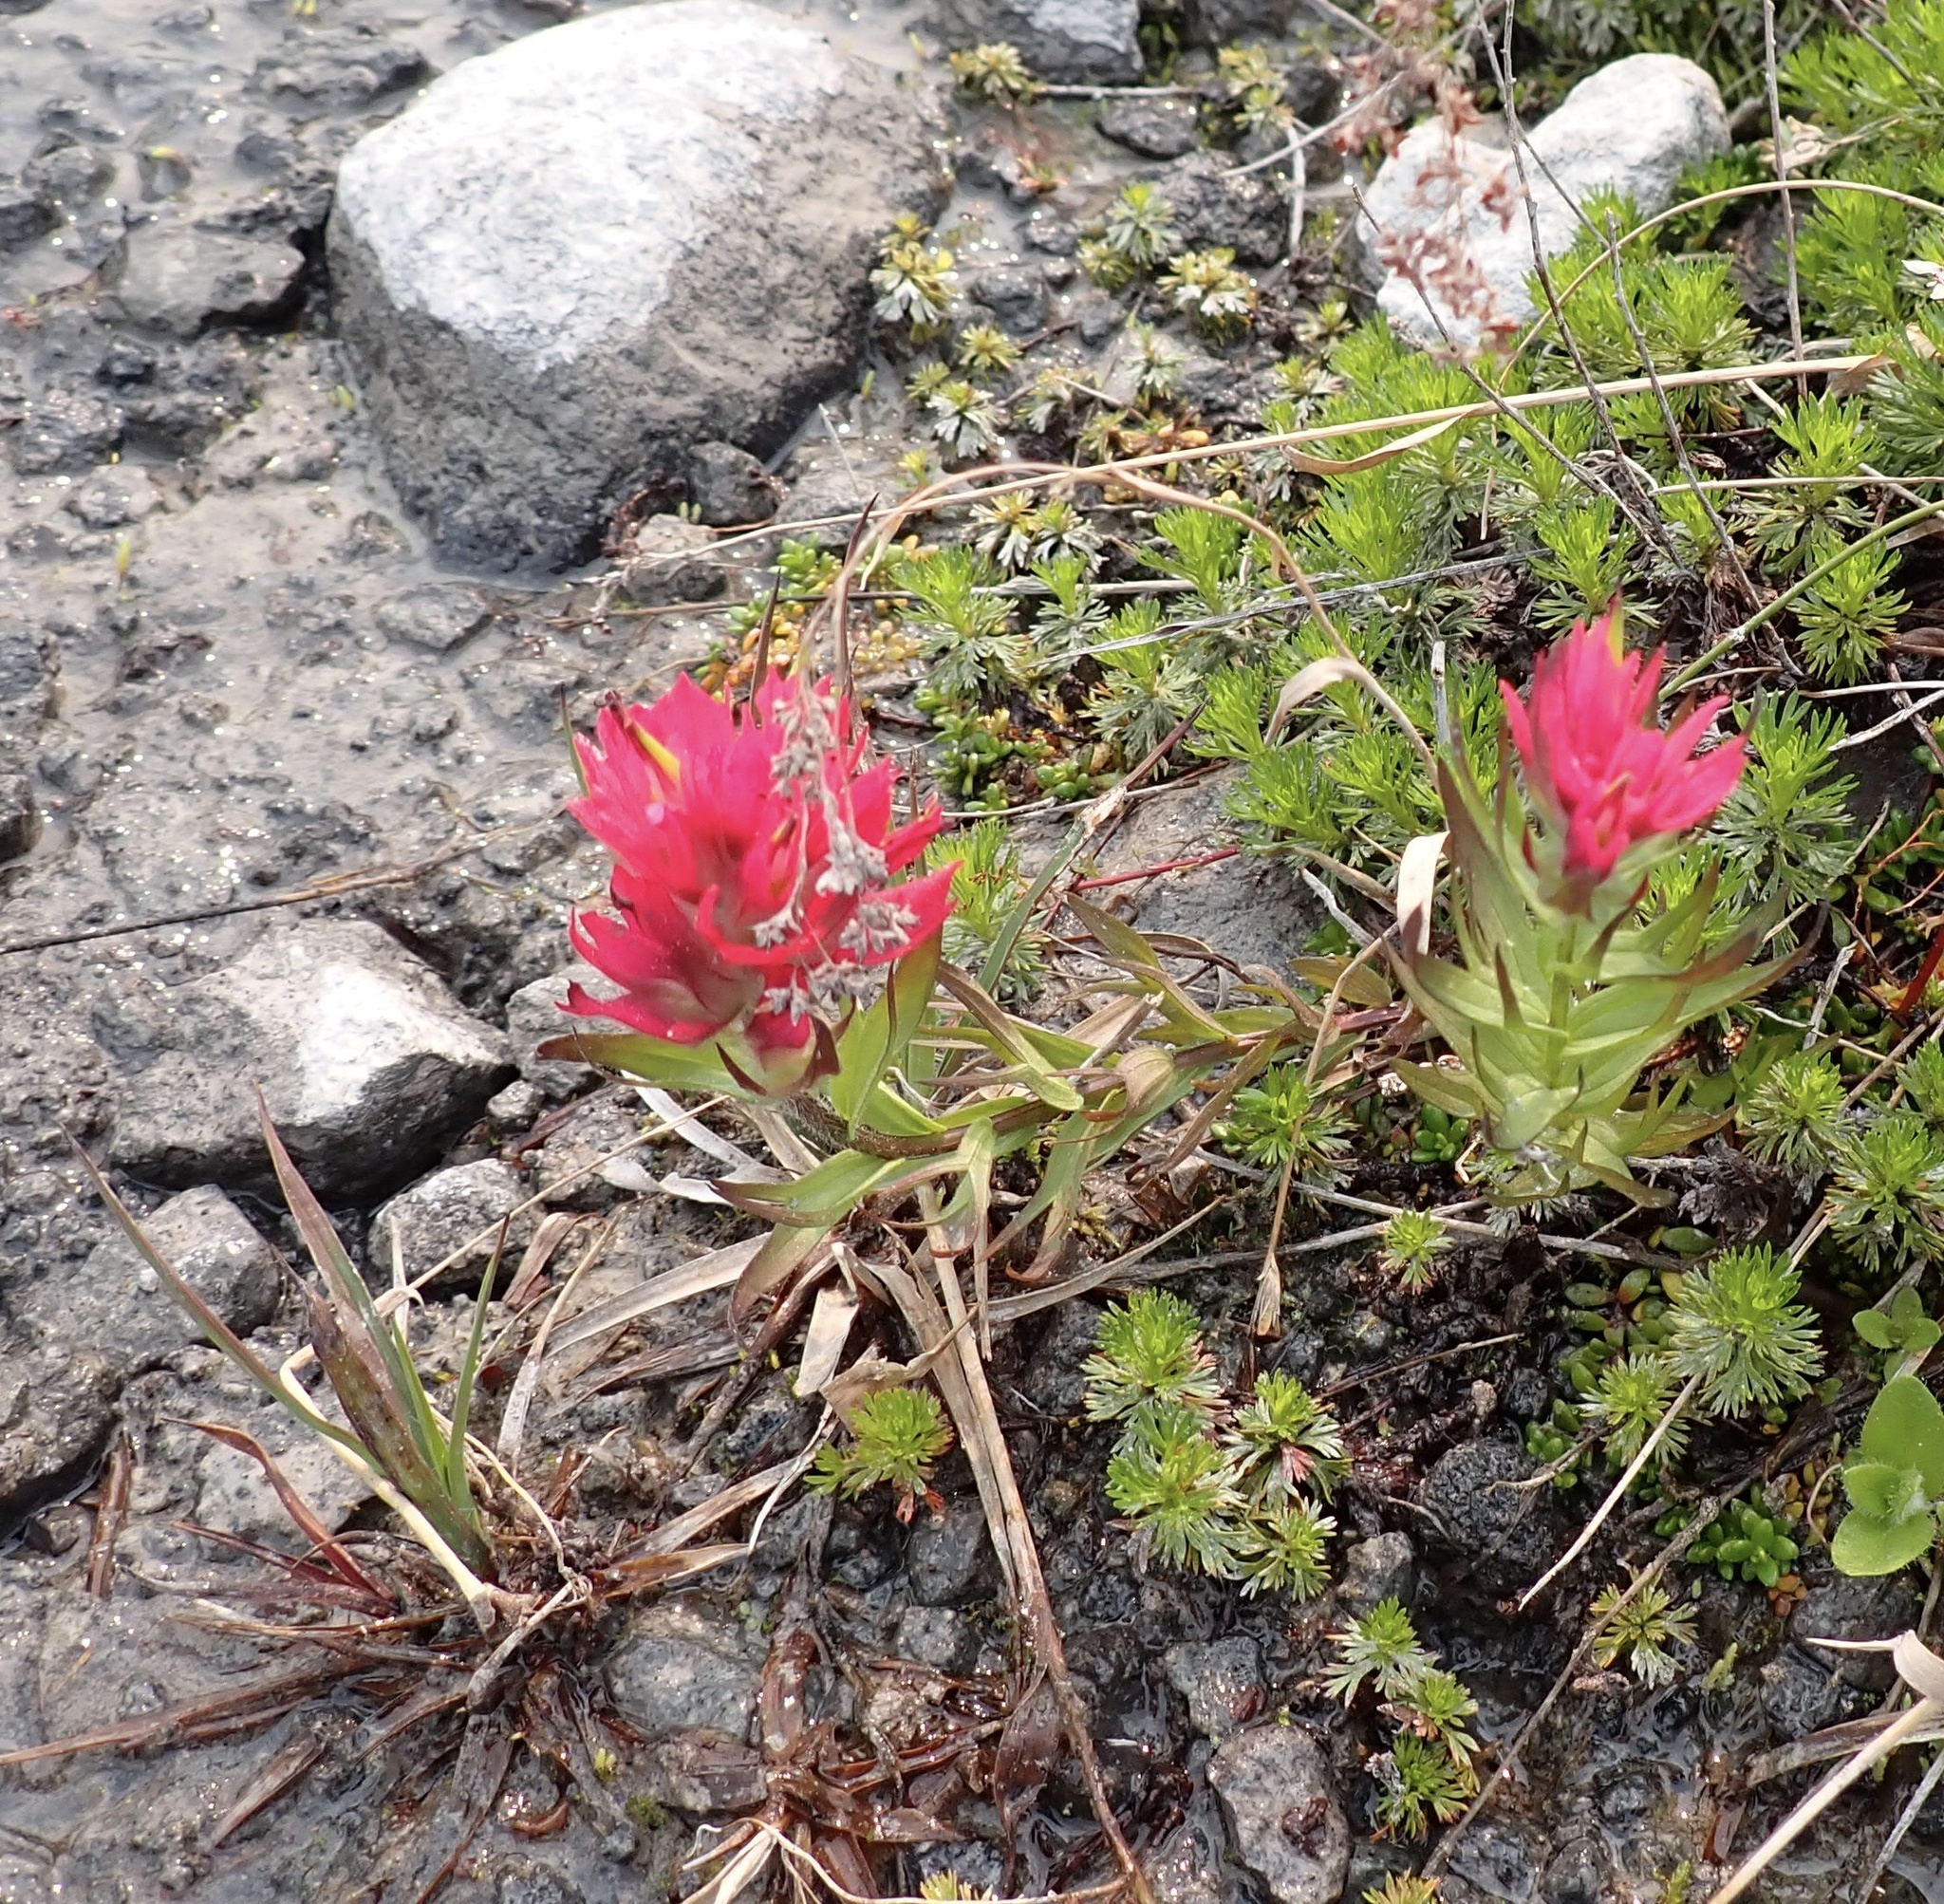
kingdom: Plantae
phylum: Tracheophyta
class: Magnoliopsida
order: Lamiales
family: Orobanchaceae
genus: Castilleja
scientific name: Castilleja parviflora
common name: Mountain paintbrush
